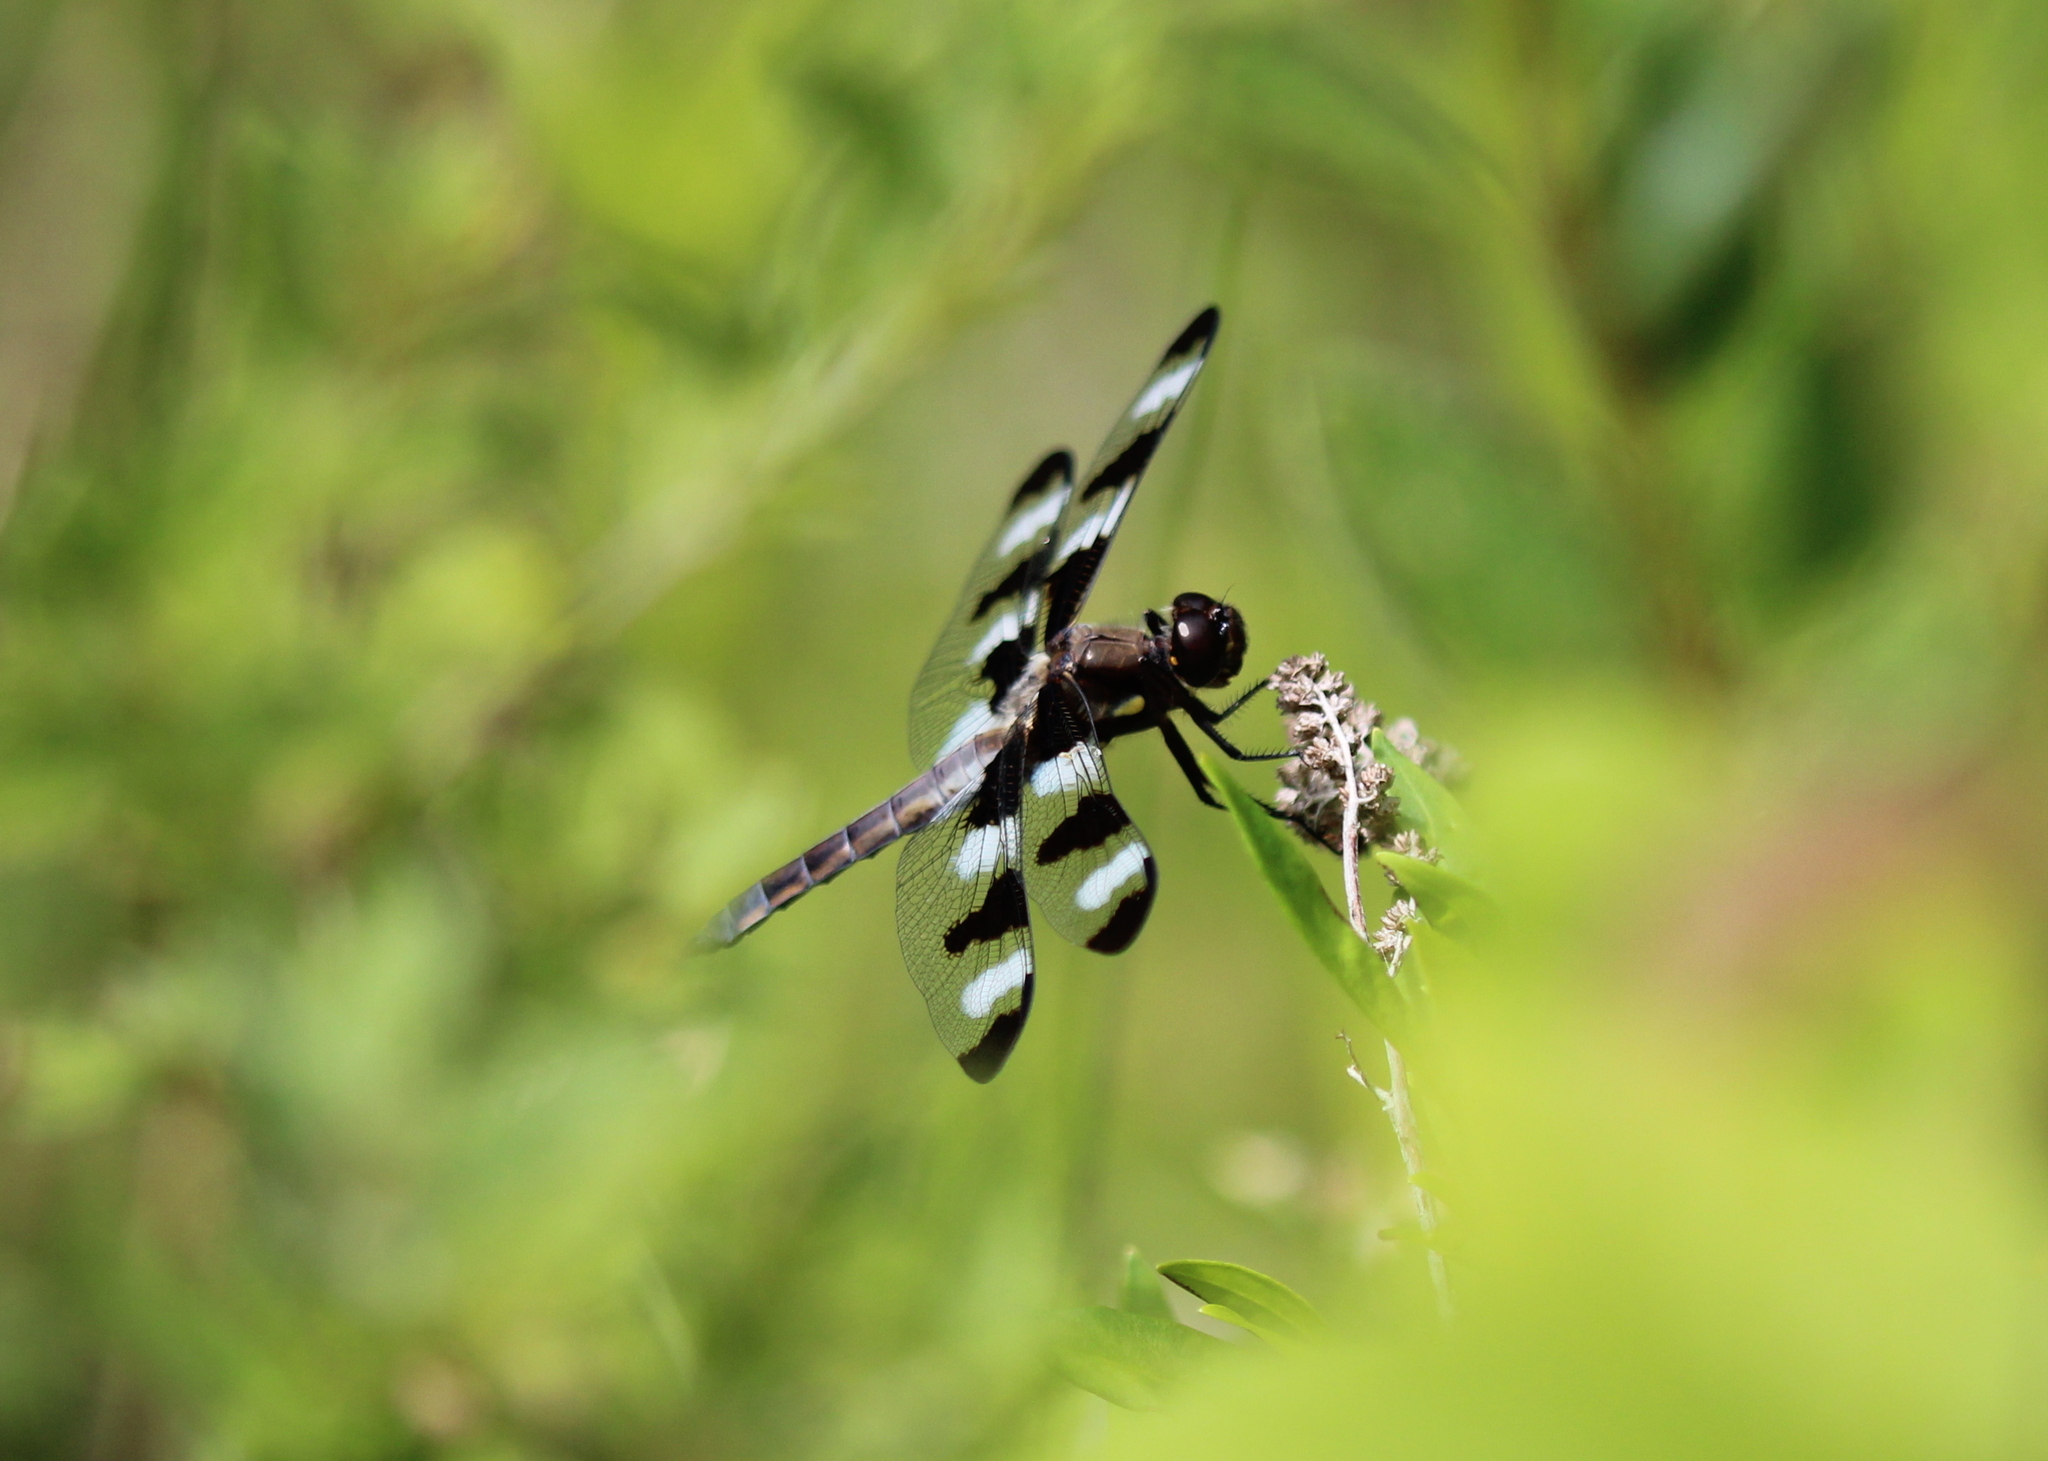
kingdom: Animalia
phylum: Arthropoda
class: Insecta
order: Odonata
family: Libellulidae
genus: Libellula
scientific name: Libellula pulchella
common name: Twelve-spotted skimmer
